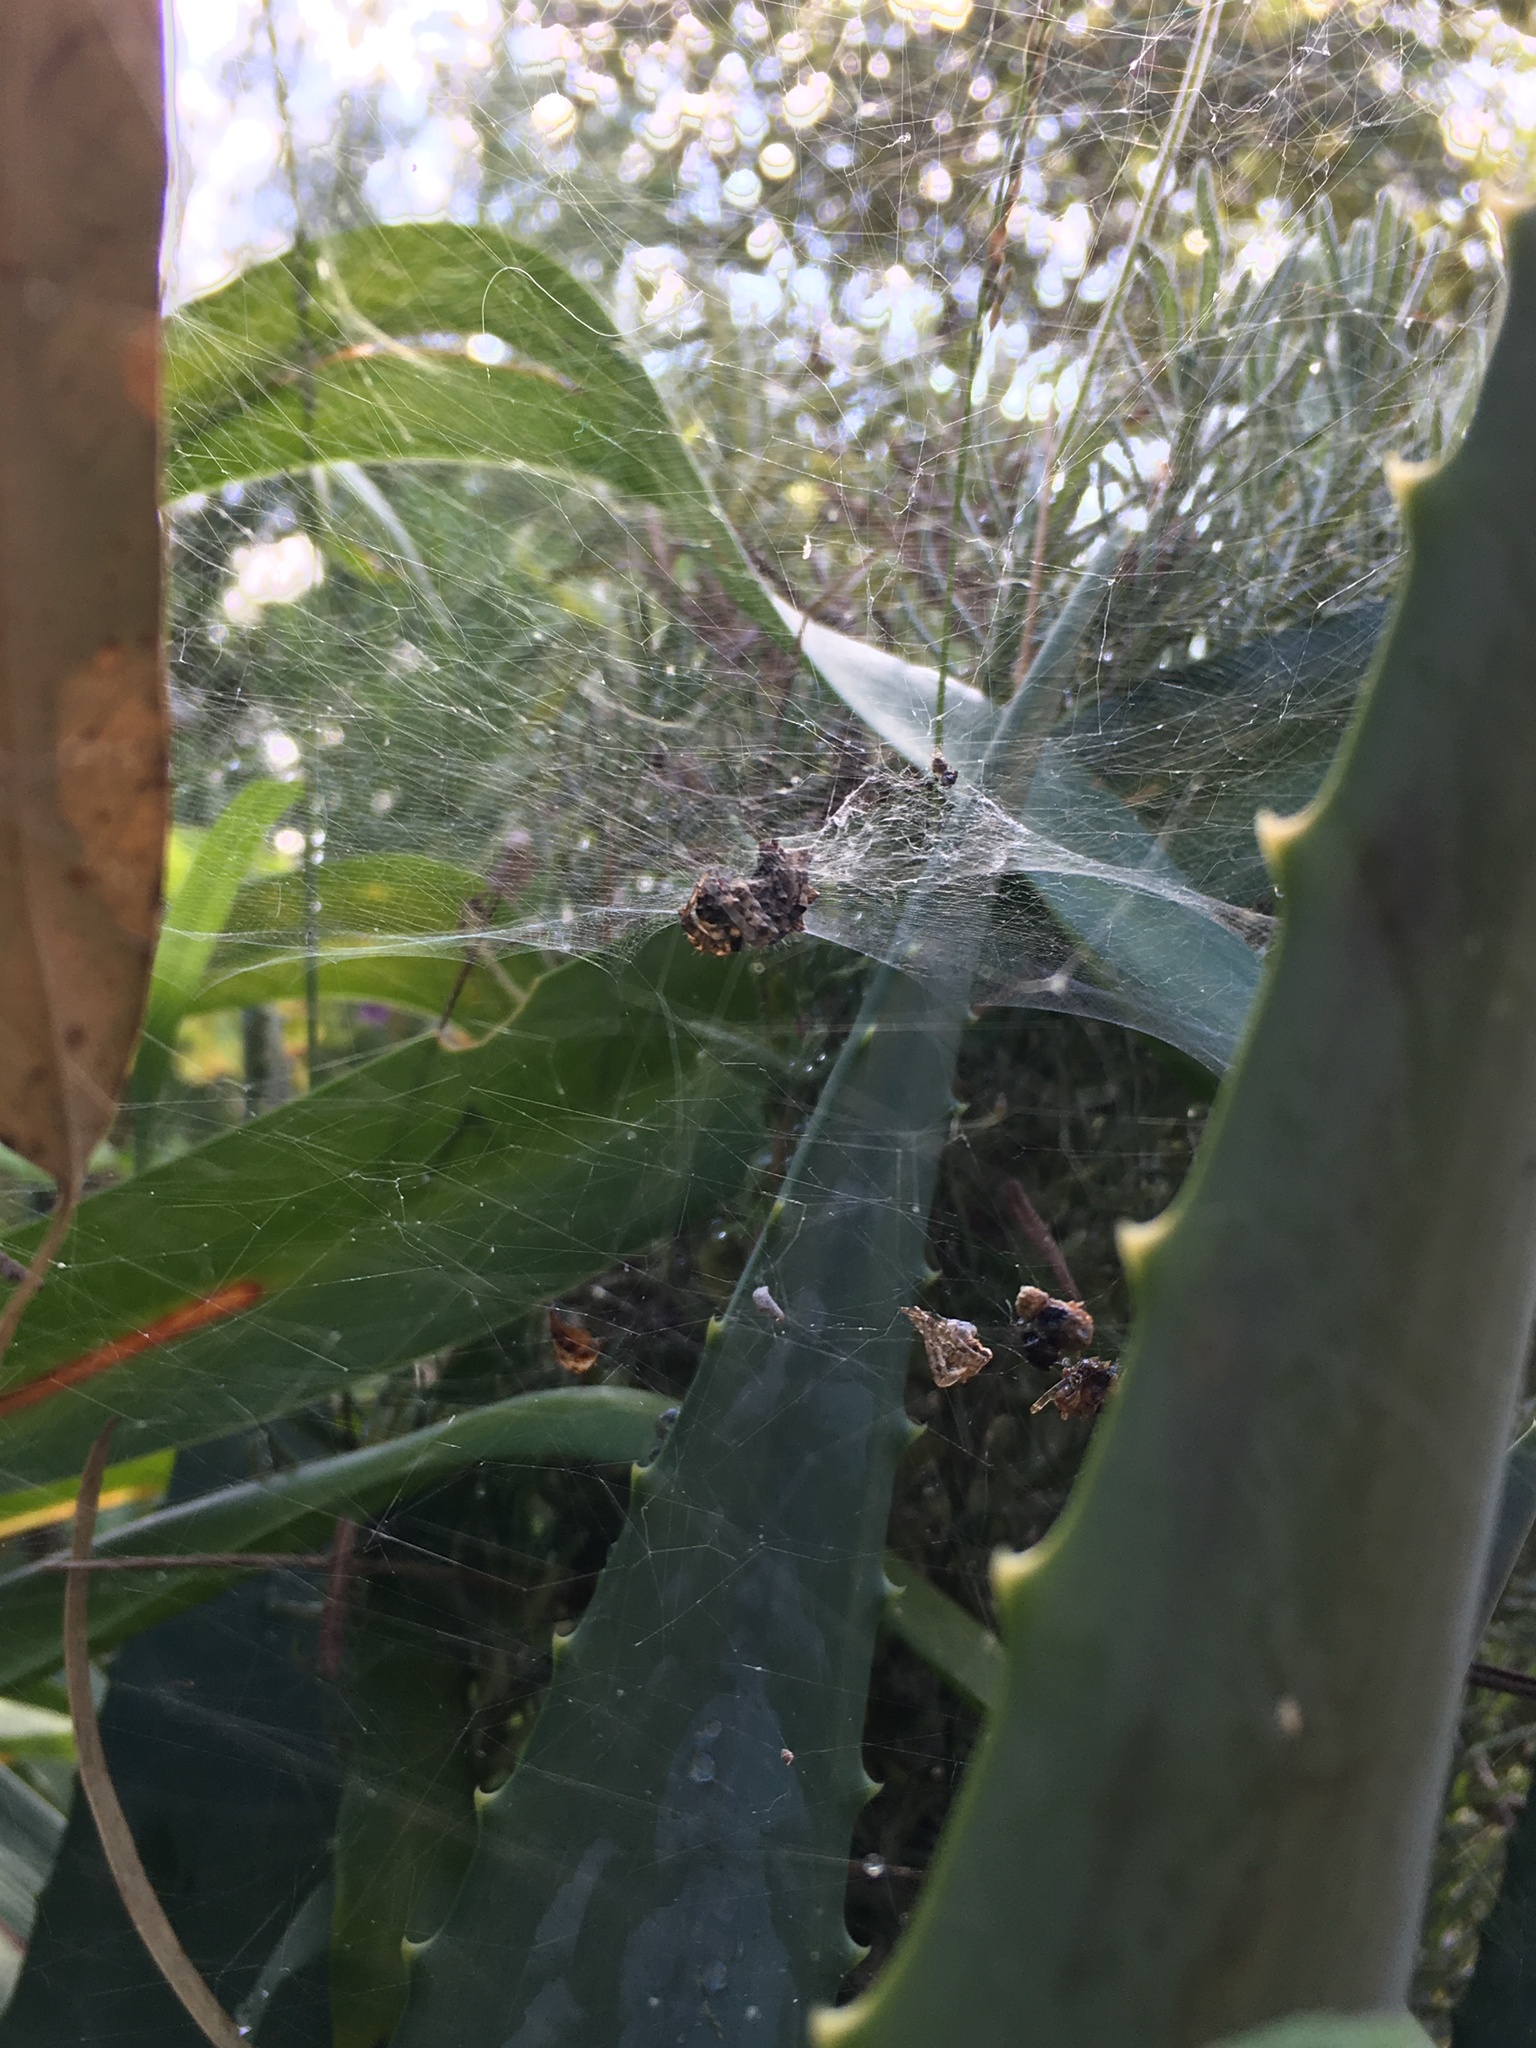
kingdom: Animalia
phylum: Arthropoda
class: Arachnida
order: Araneae
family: Araneidae
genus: Cyrtophora
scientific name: Cyrtophora citricola
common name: Orb weavers
